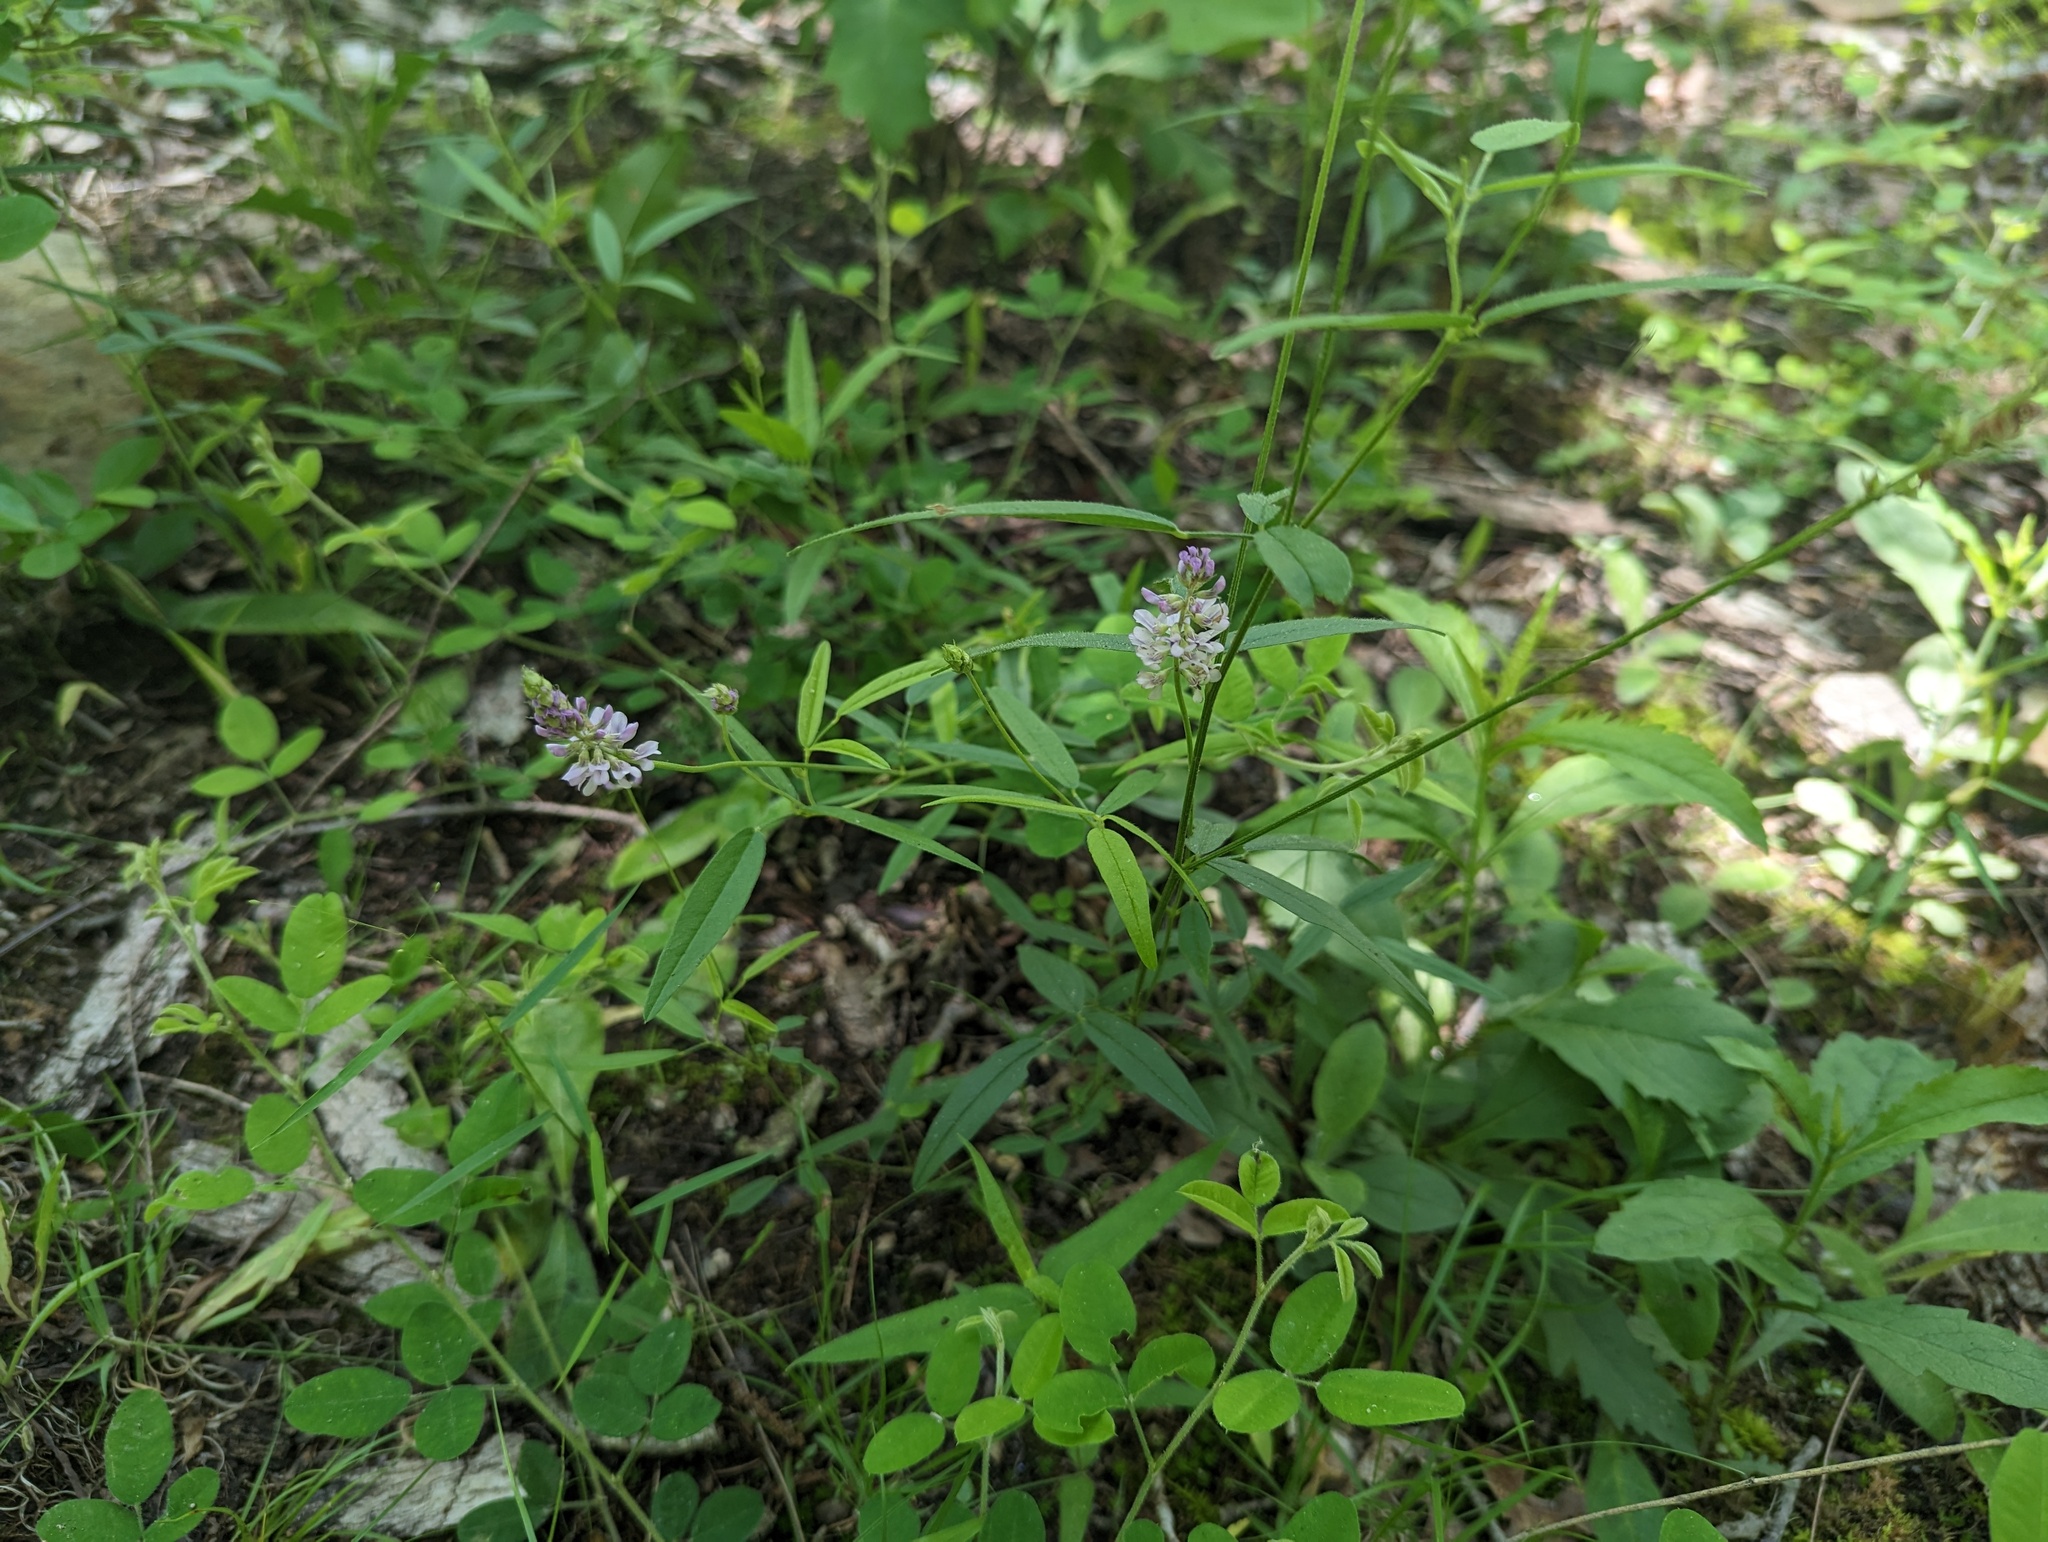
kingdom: Plantae
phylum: Tracheophyta
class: Magnoliopsida
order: Fabales
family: Fabaceae
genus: Orbexilum
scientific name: Orbexilum pedunculatum
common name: Sampson's snakeroot
